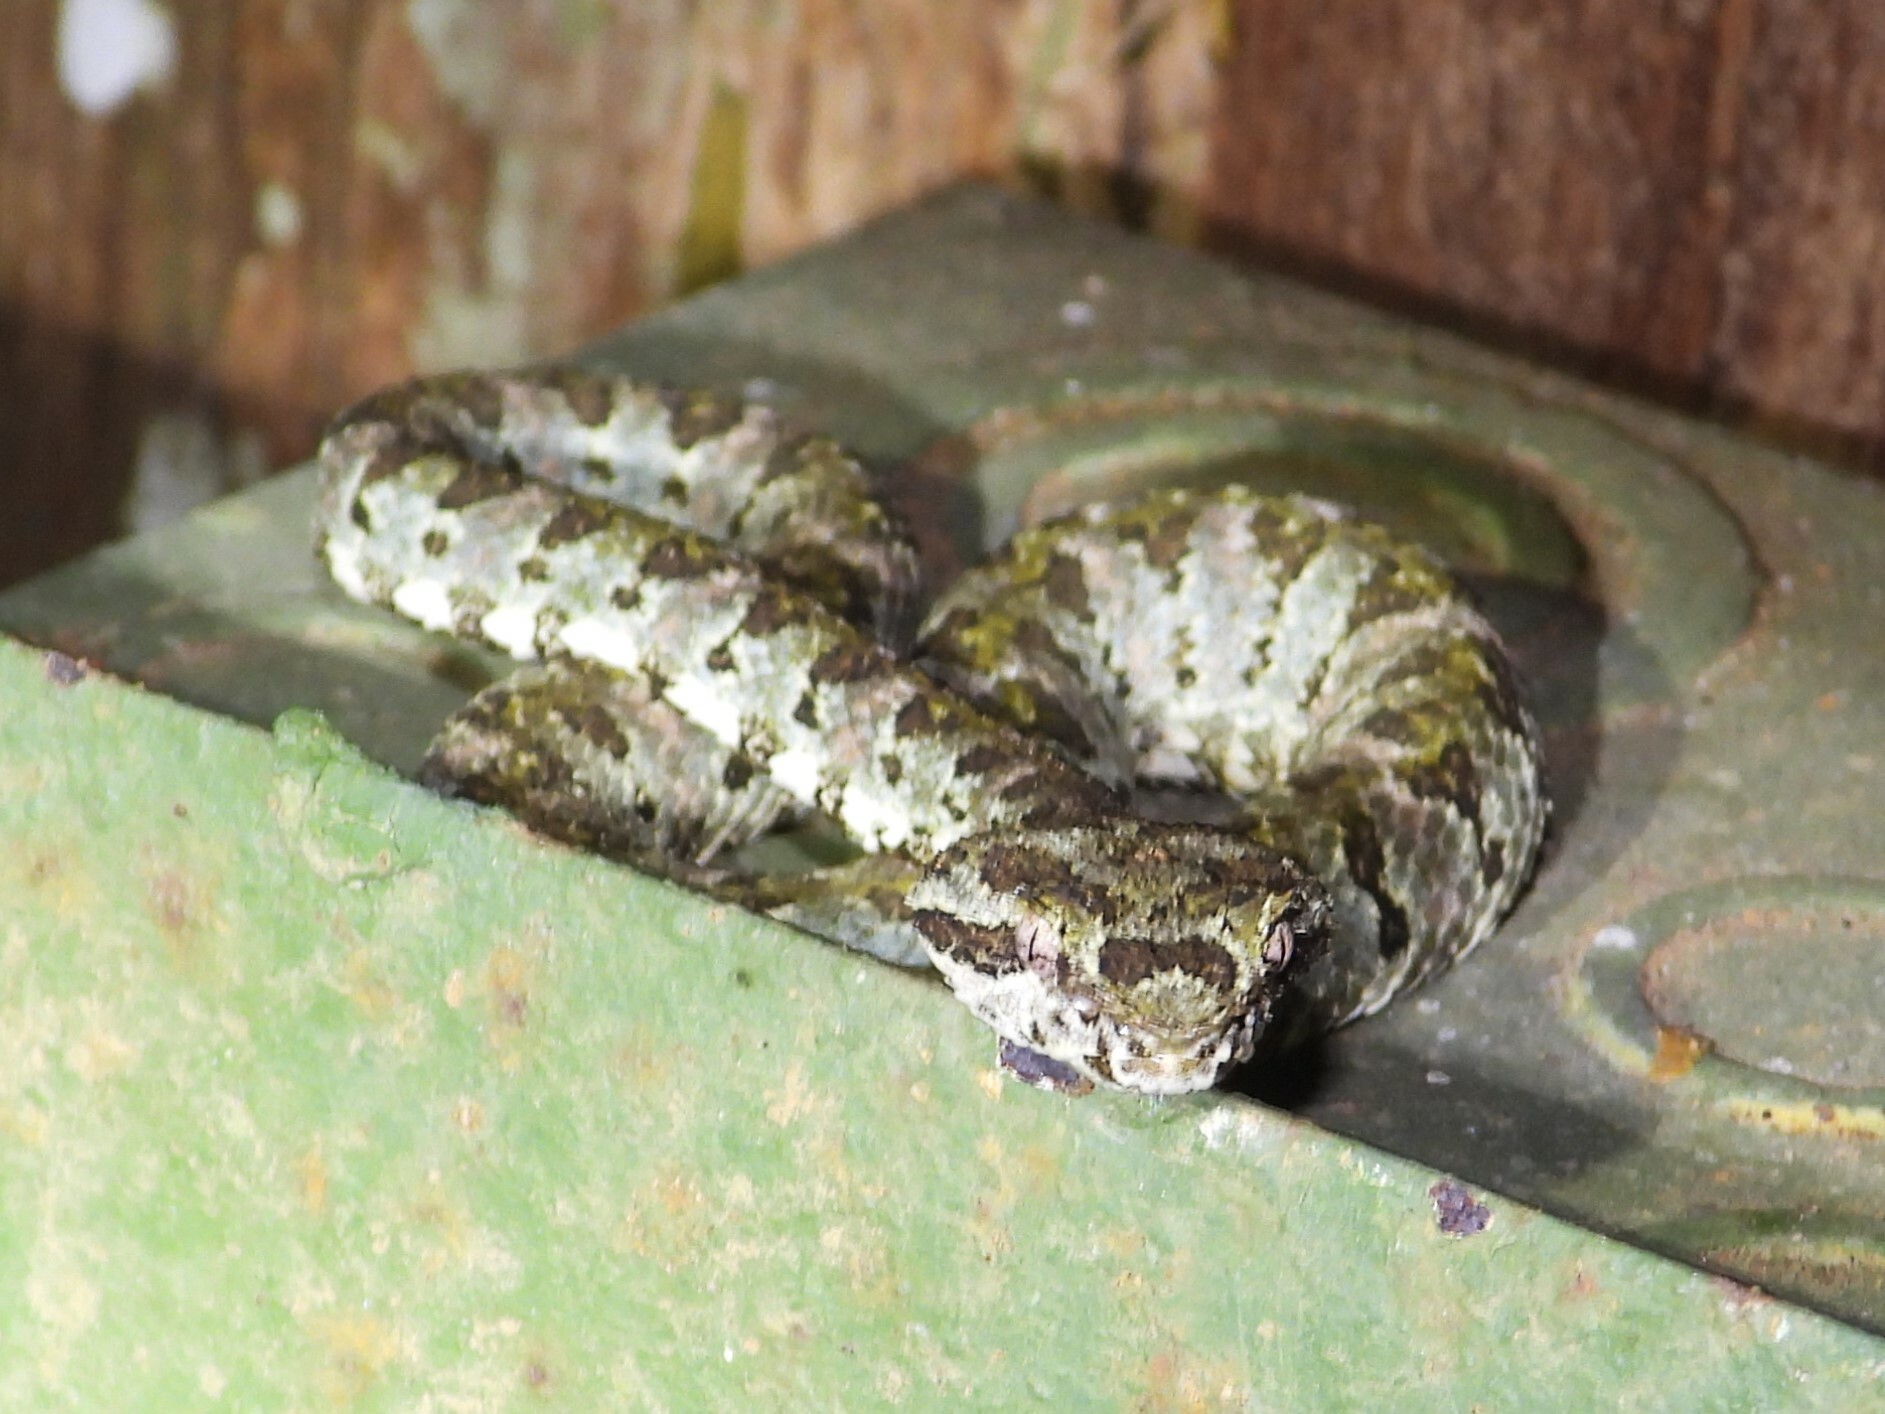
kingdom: Animalia
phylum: Chordata
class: Squamata
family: Viperidae
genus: Bothriechis
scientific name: Bothriechis schlegelii
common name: Eyelash viper
